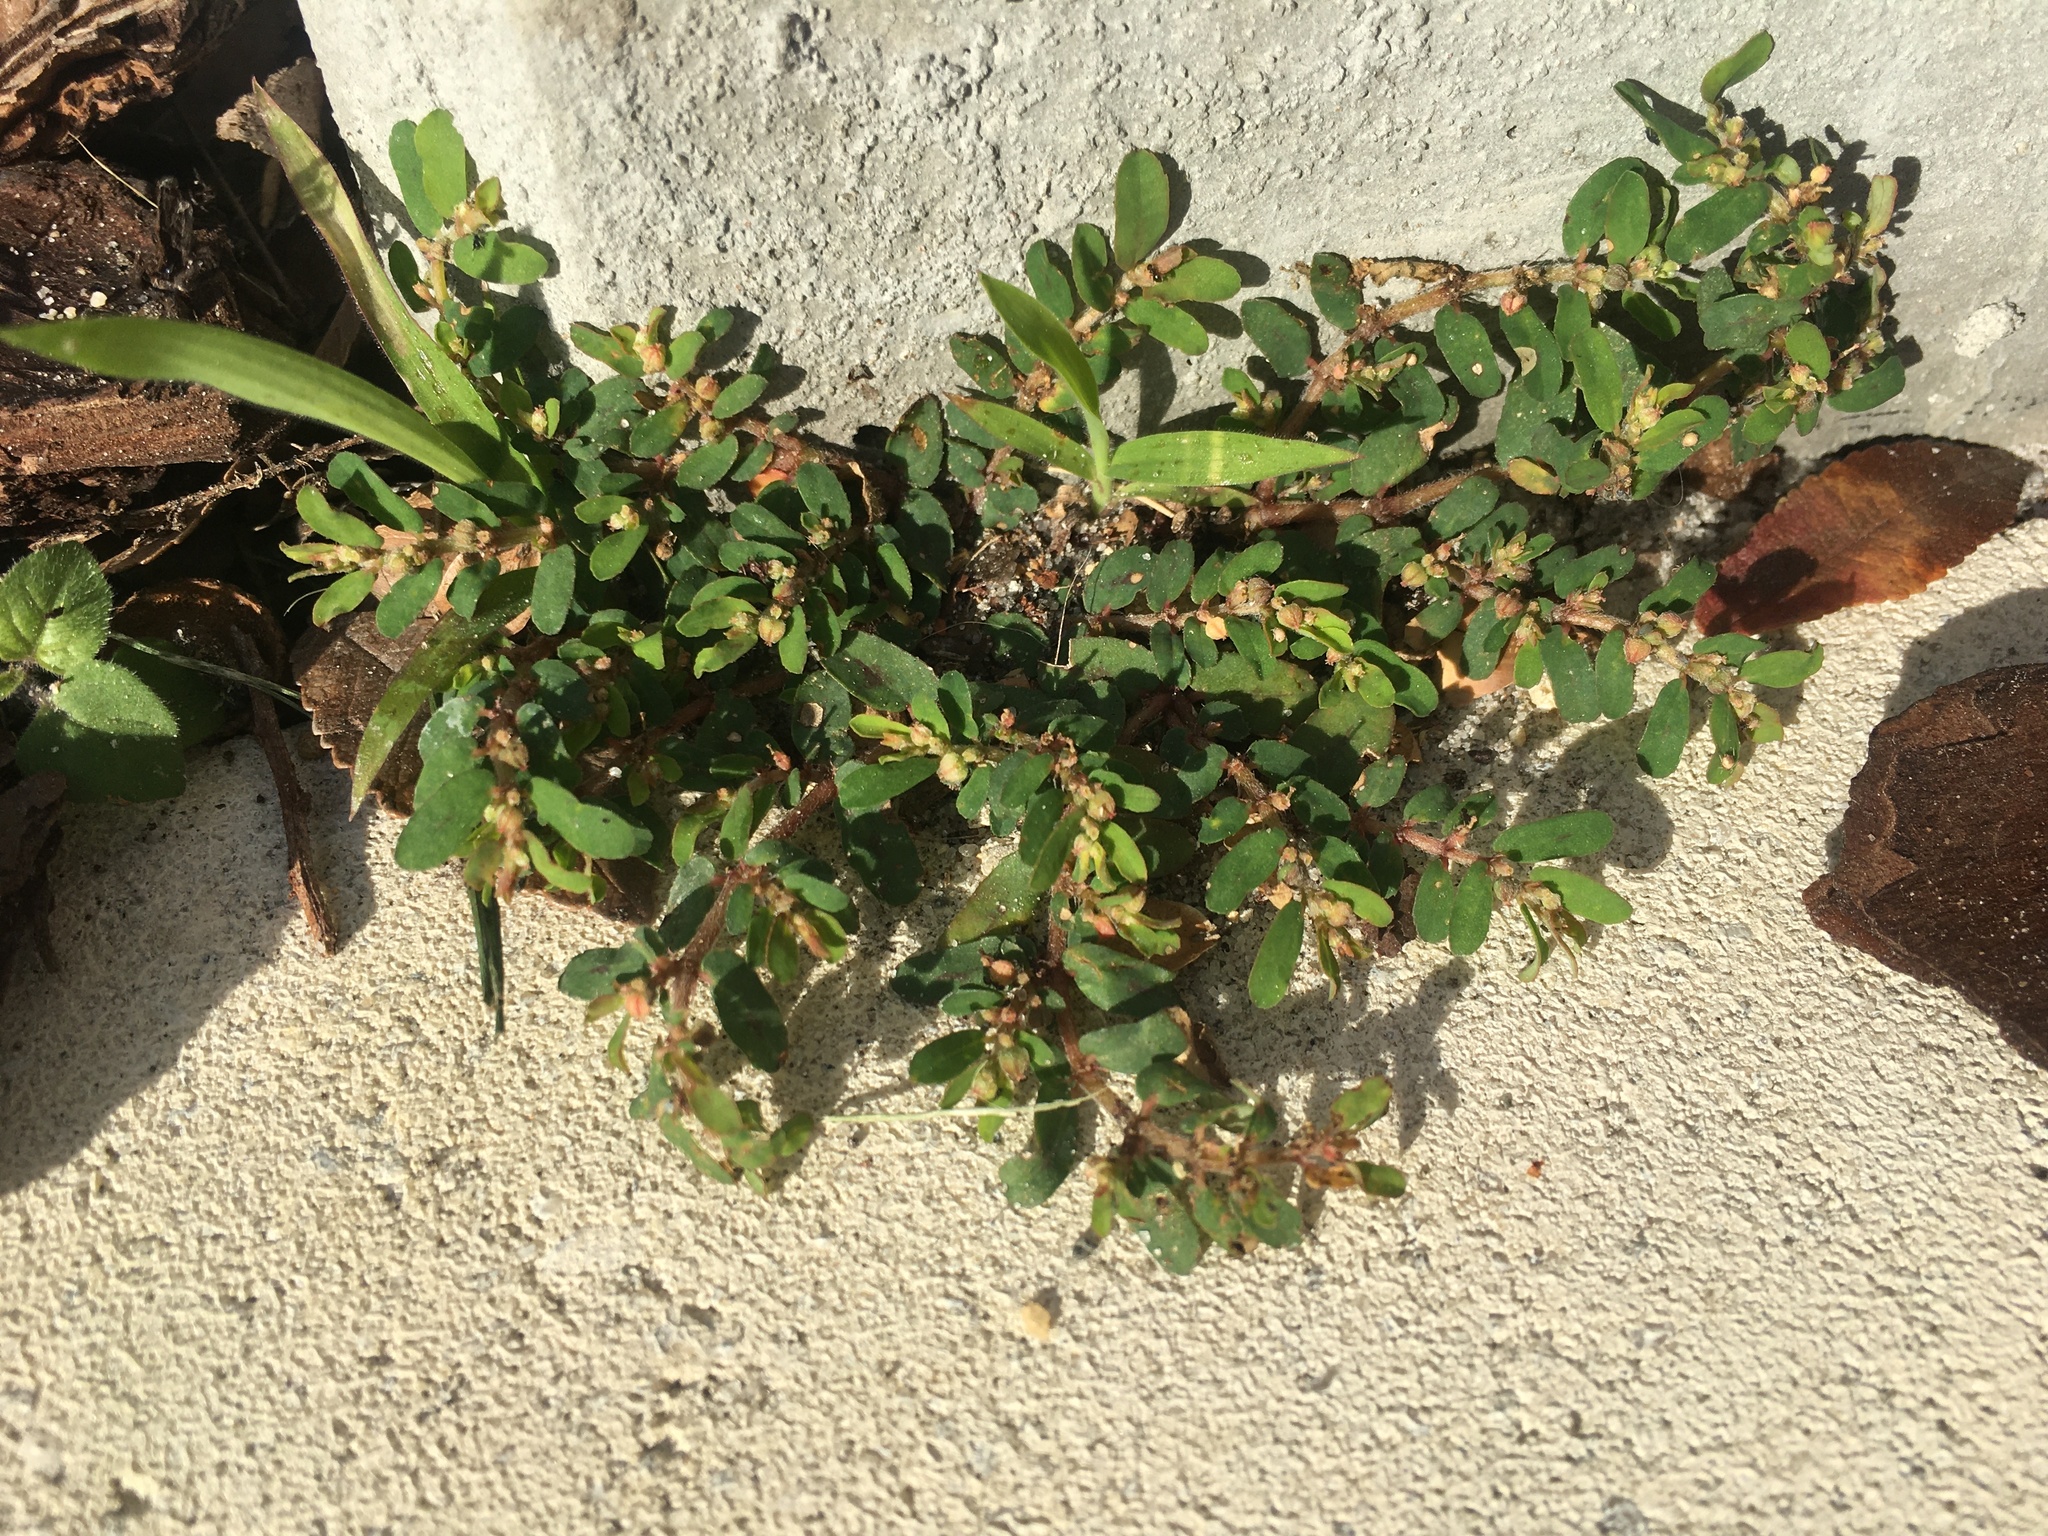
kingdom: Plantae
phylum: Tracheophyta
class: Magnoliopsida
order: Malpighiales
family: Euphorbiaceae
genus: Euphorbia
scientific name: Euphorbia maculata
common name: Spotted spurge
